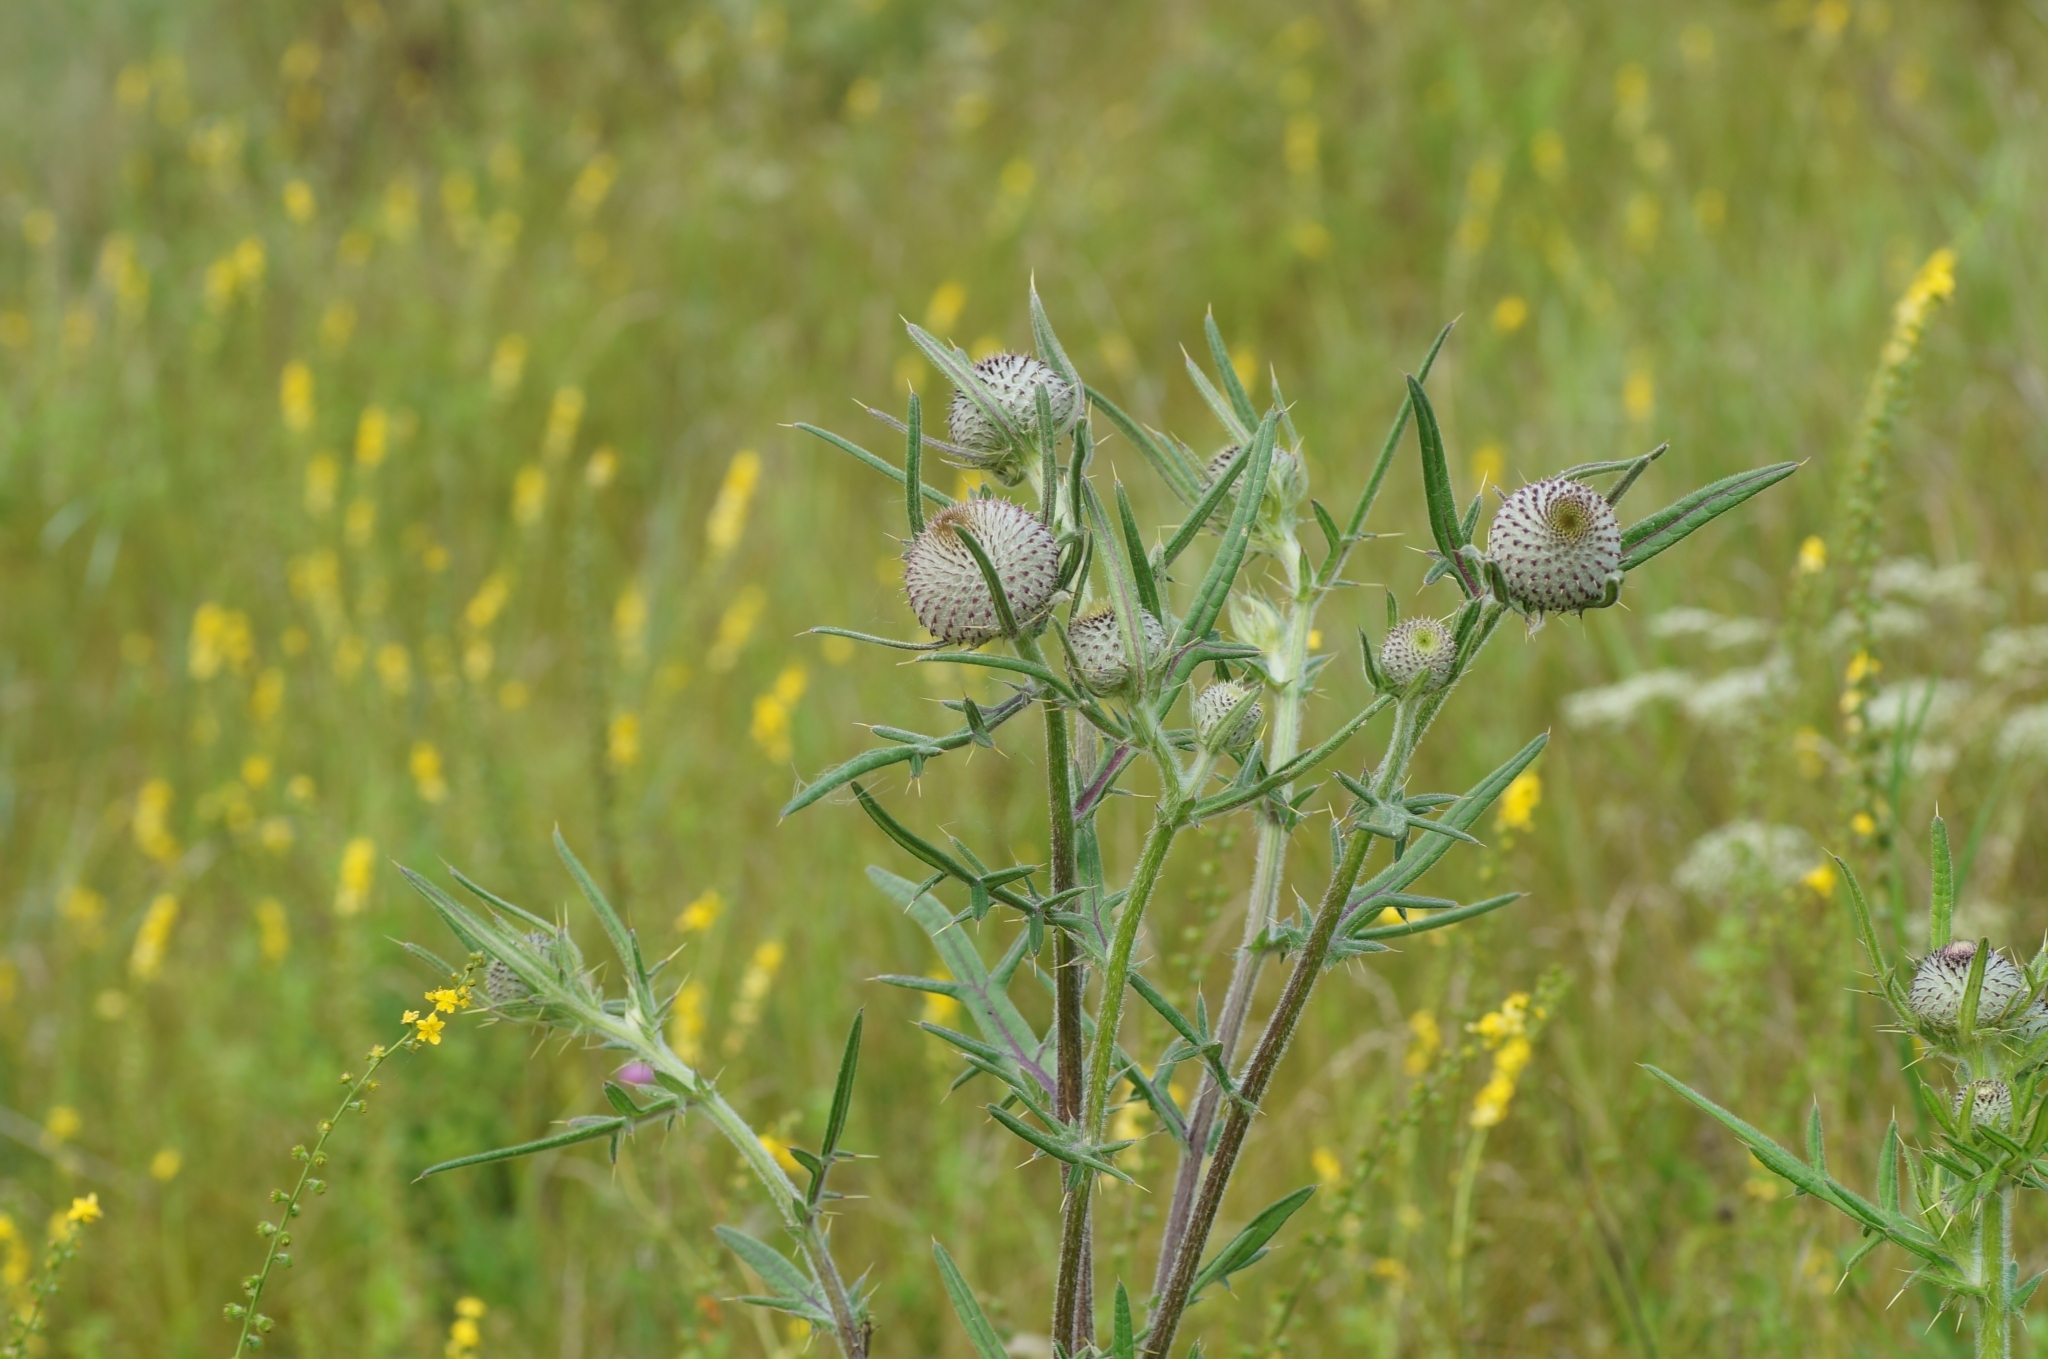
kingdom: Plantae
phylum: Tracheophyta
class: Magnoliopsida
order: Asterales
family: Asteraceae
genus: Lophiolepis
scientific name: Lophiolepis decussata
